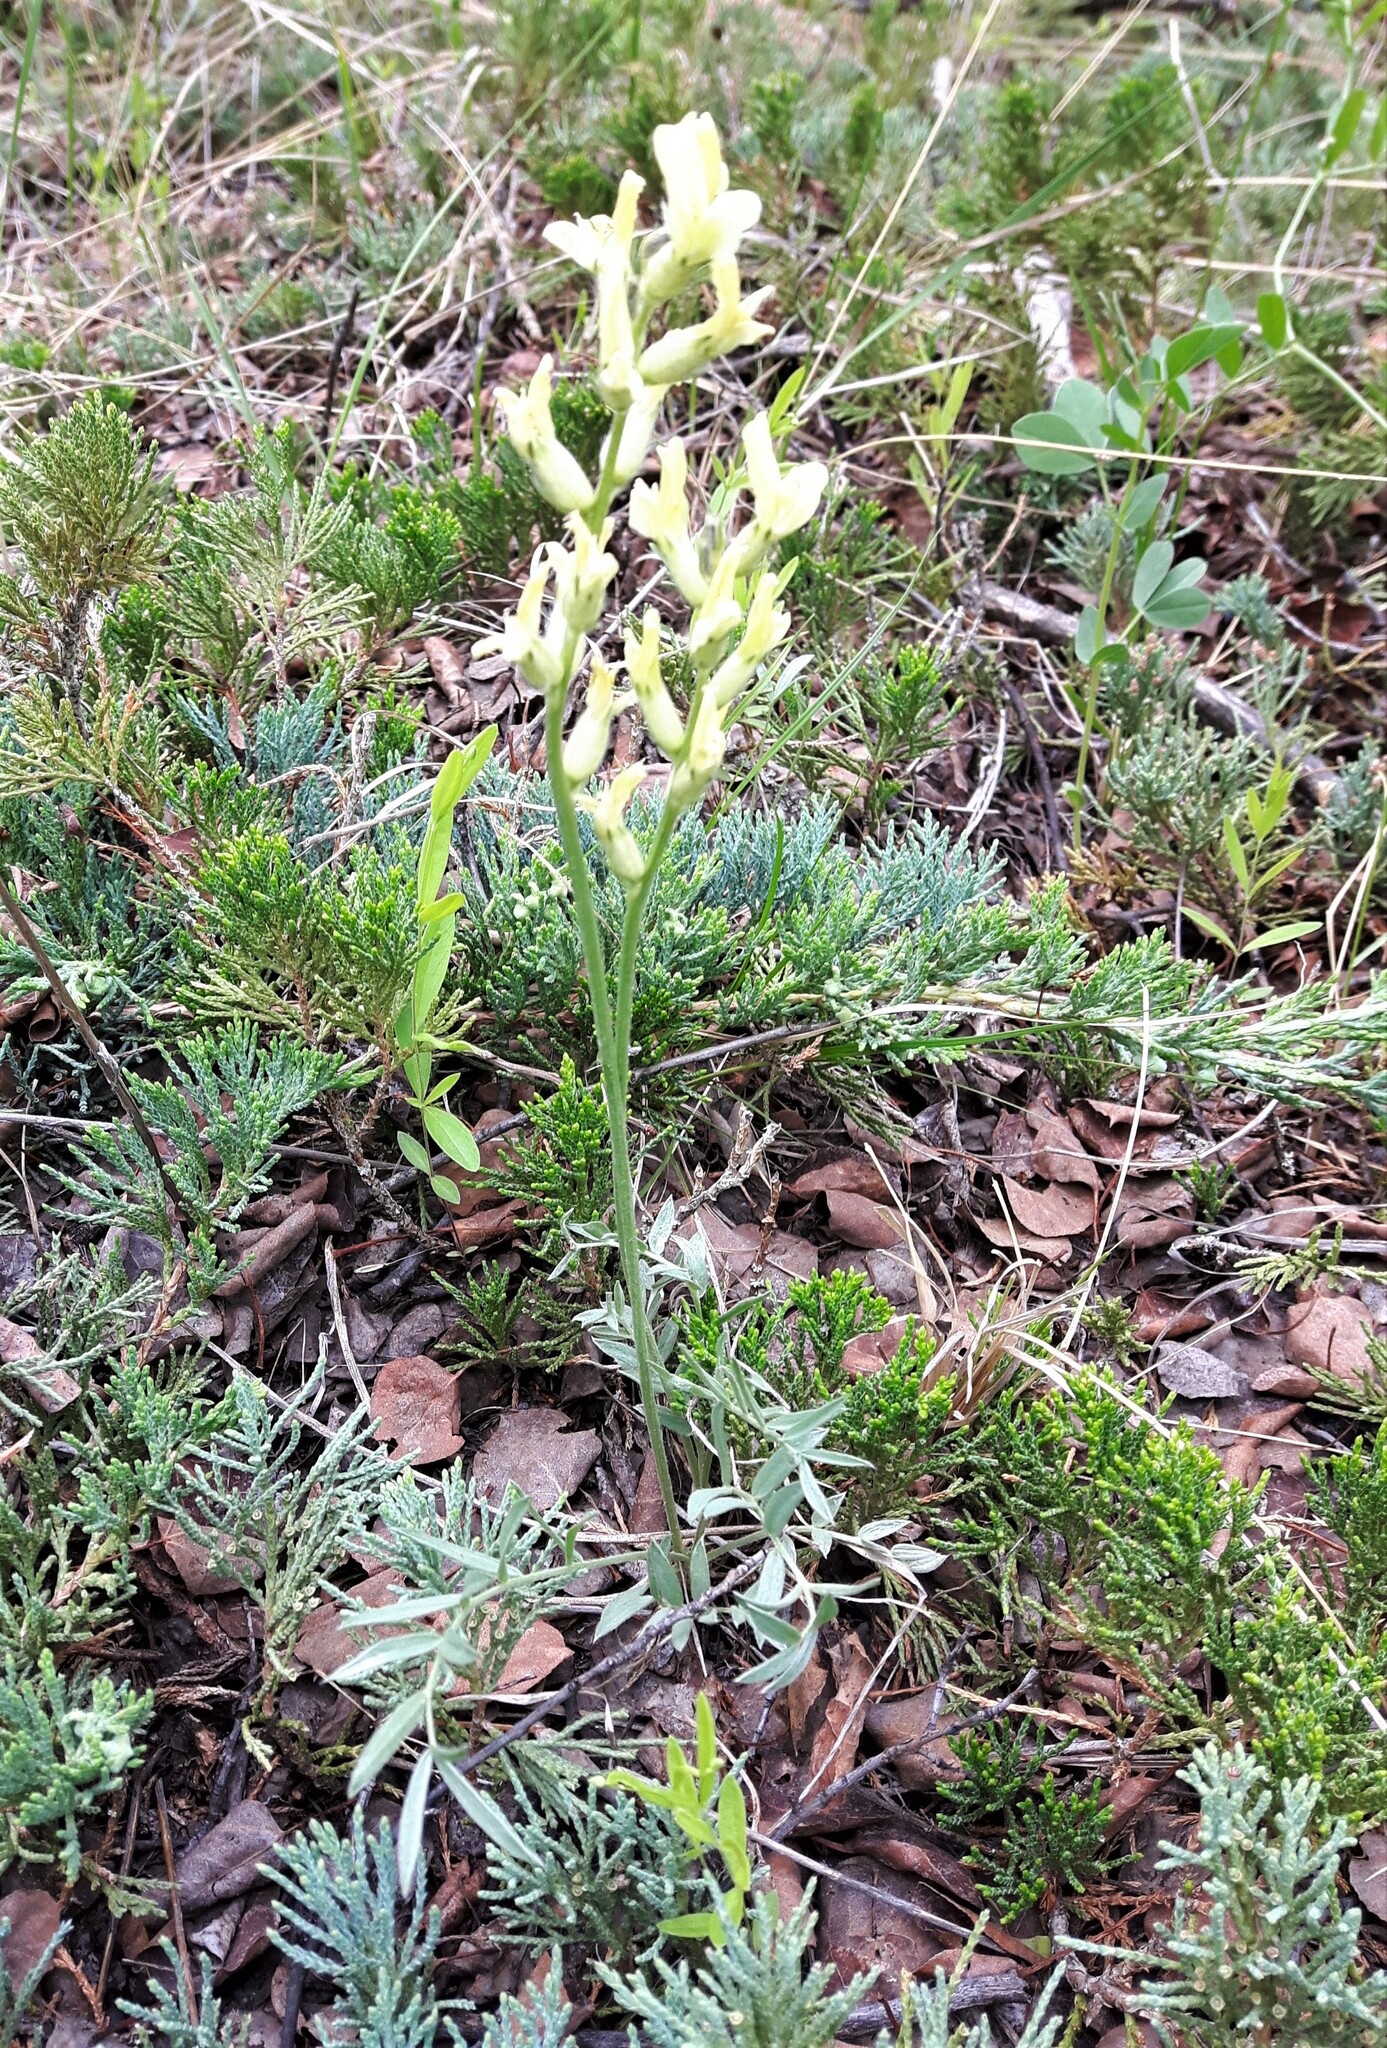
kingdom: Plantae
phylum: Tracheophyta
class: Magnoliopsida
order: Fabales
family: Fabaceae
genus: Oxytropis
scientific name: Oxytropis sericea
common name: Silky locoweed
